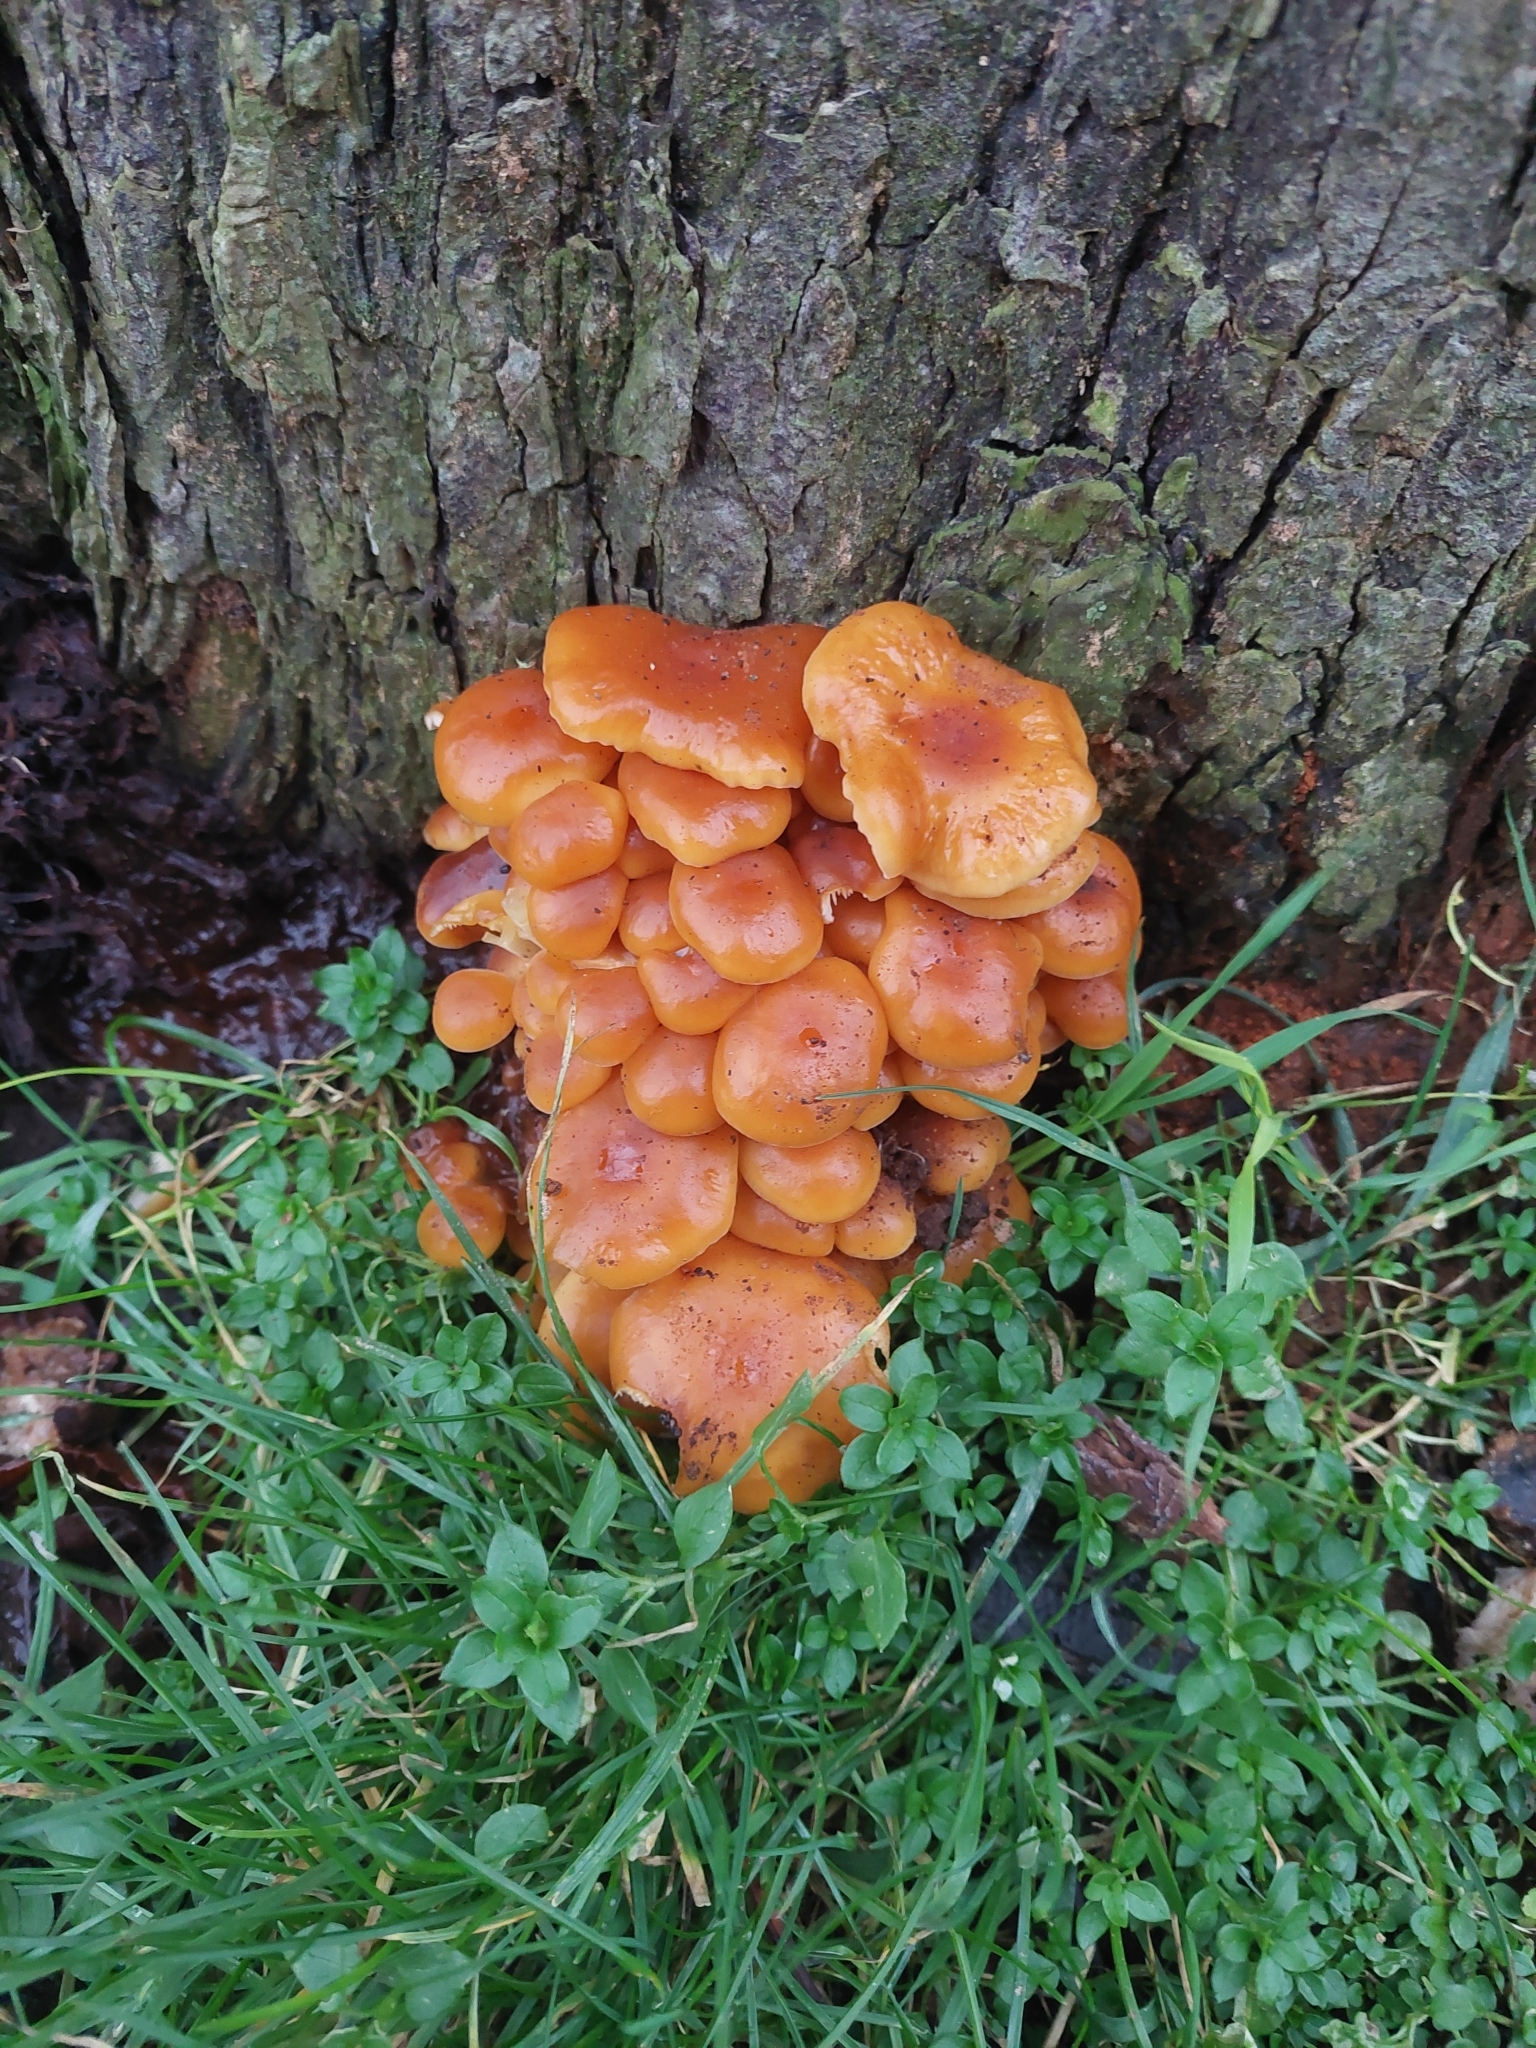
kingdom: Fungi
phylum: Basidiomycota
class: Agaricomycetes
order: Agaricales
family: Physalacriaceae
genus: Flammulina
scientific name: Flammulina
